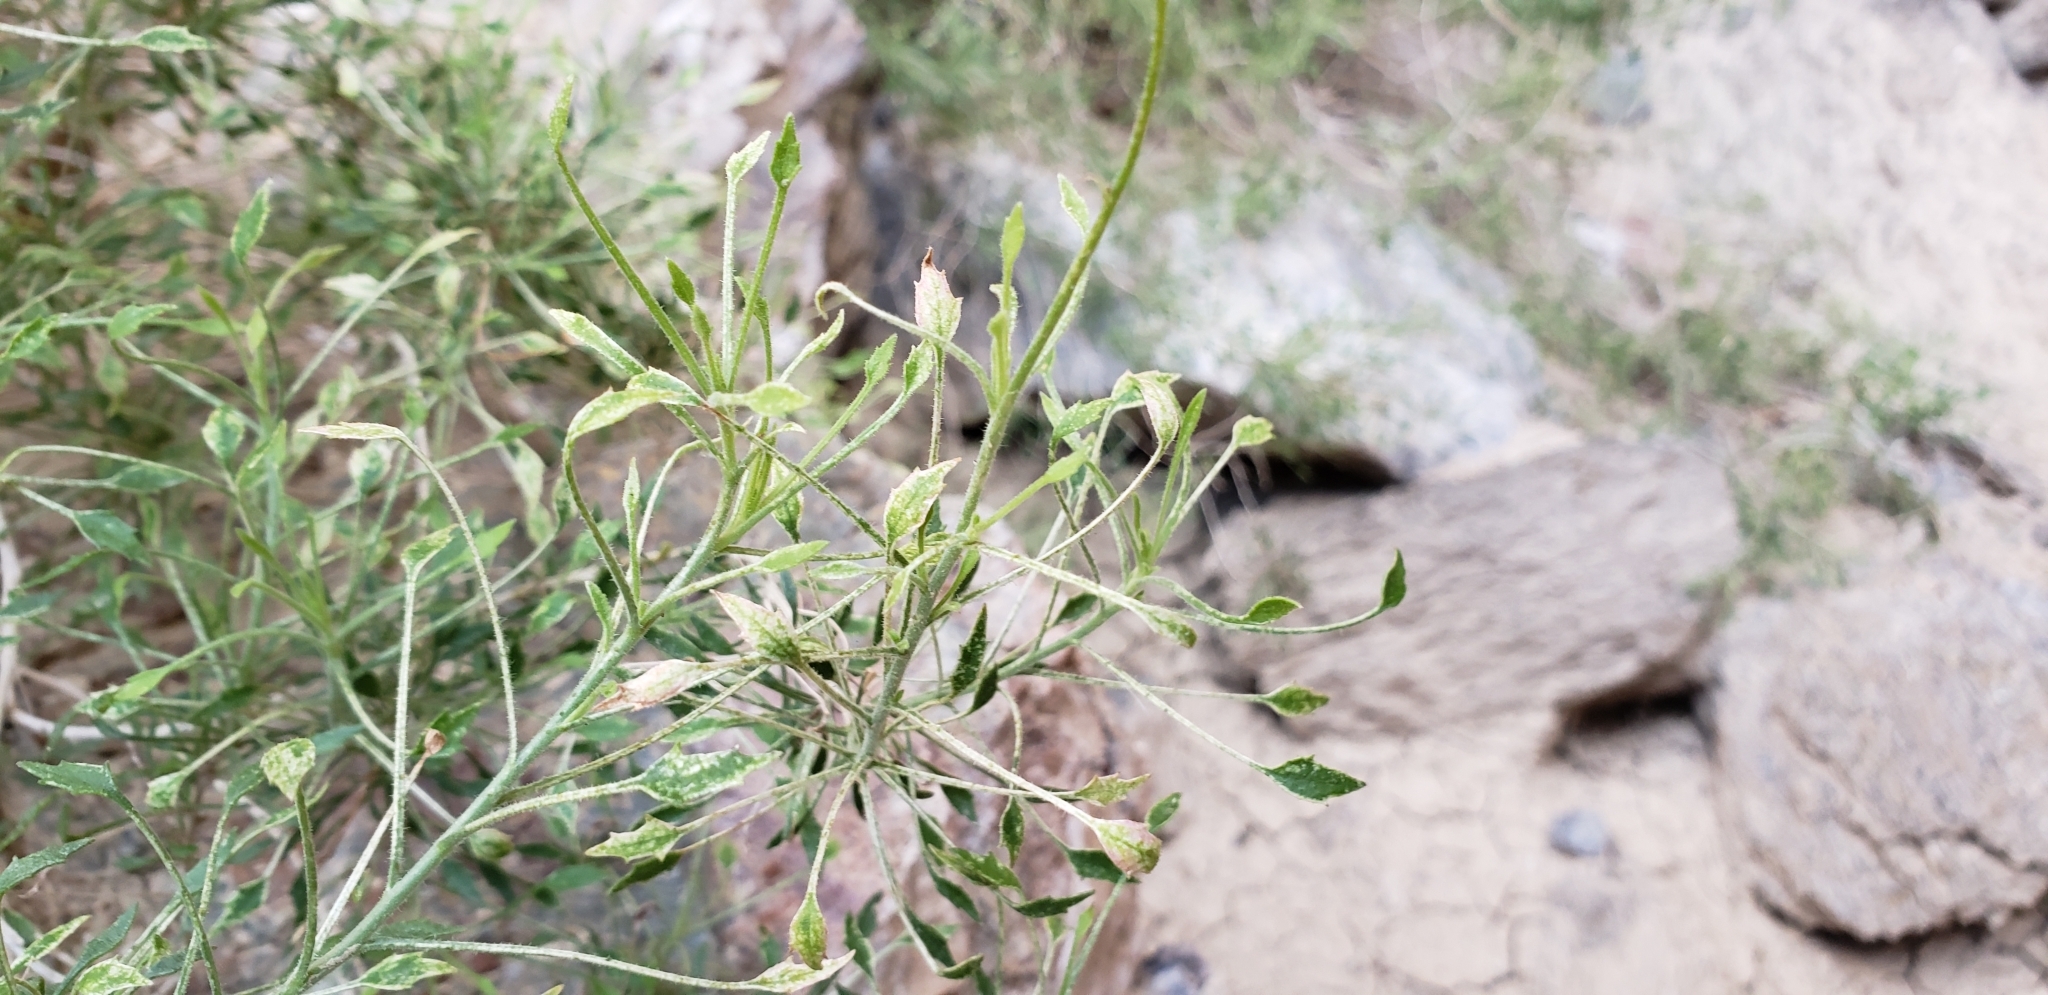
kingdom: Plantae
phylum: Tracheophyta
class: Magnoliopsida
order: Asterales
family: Asteraceae
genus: Pleurocoronis
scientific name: Pleurocoronis pluriseta
